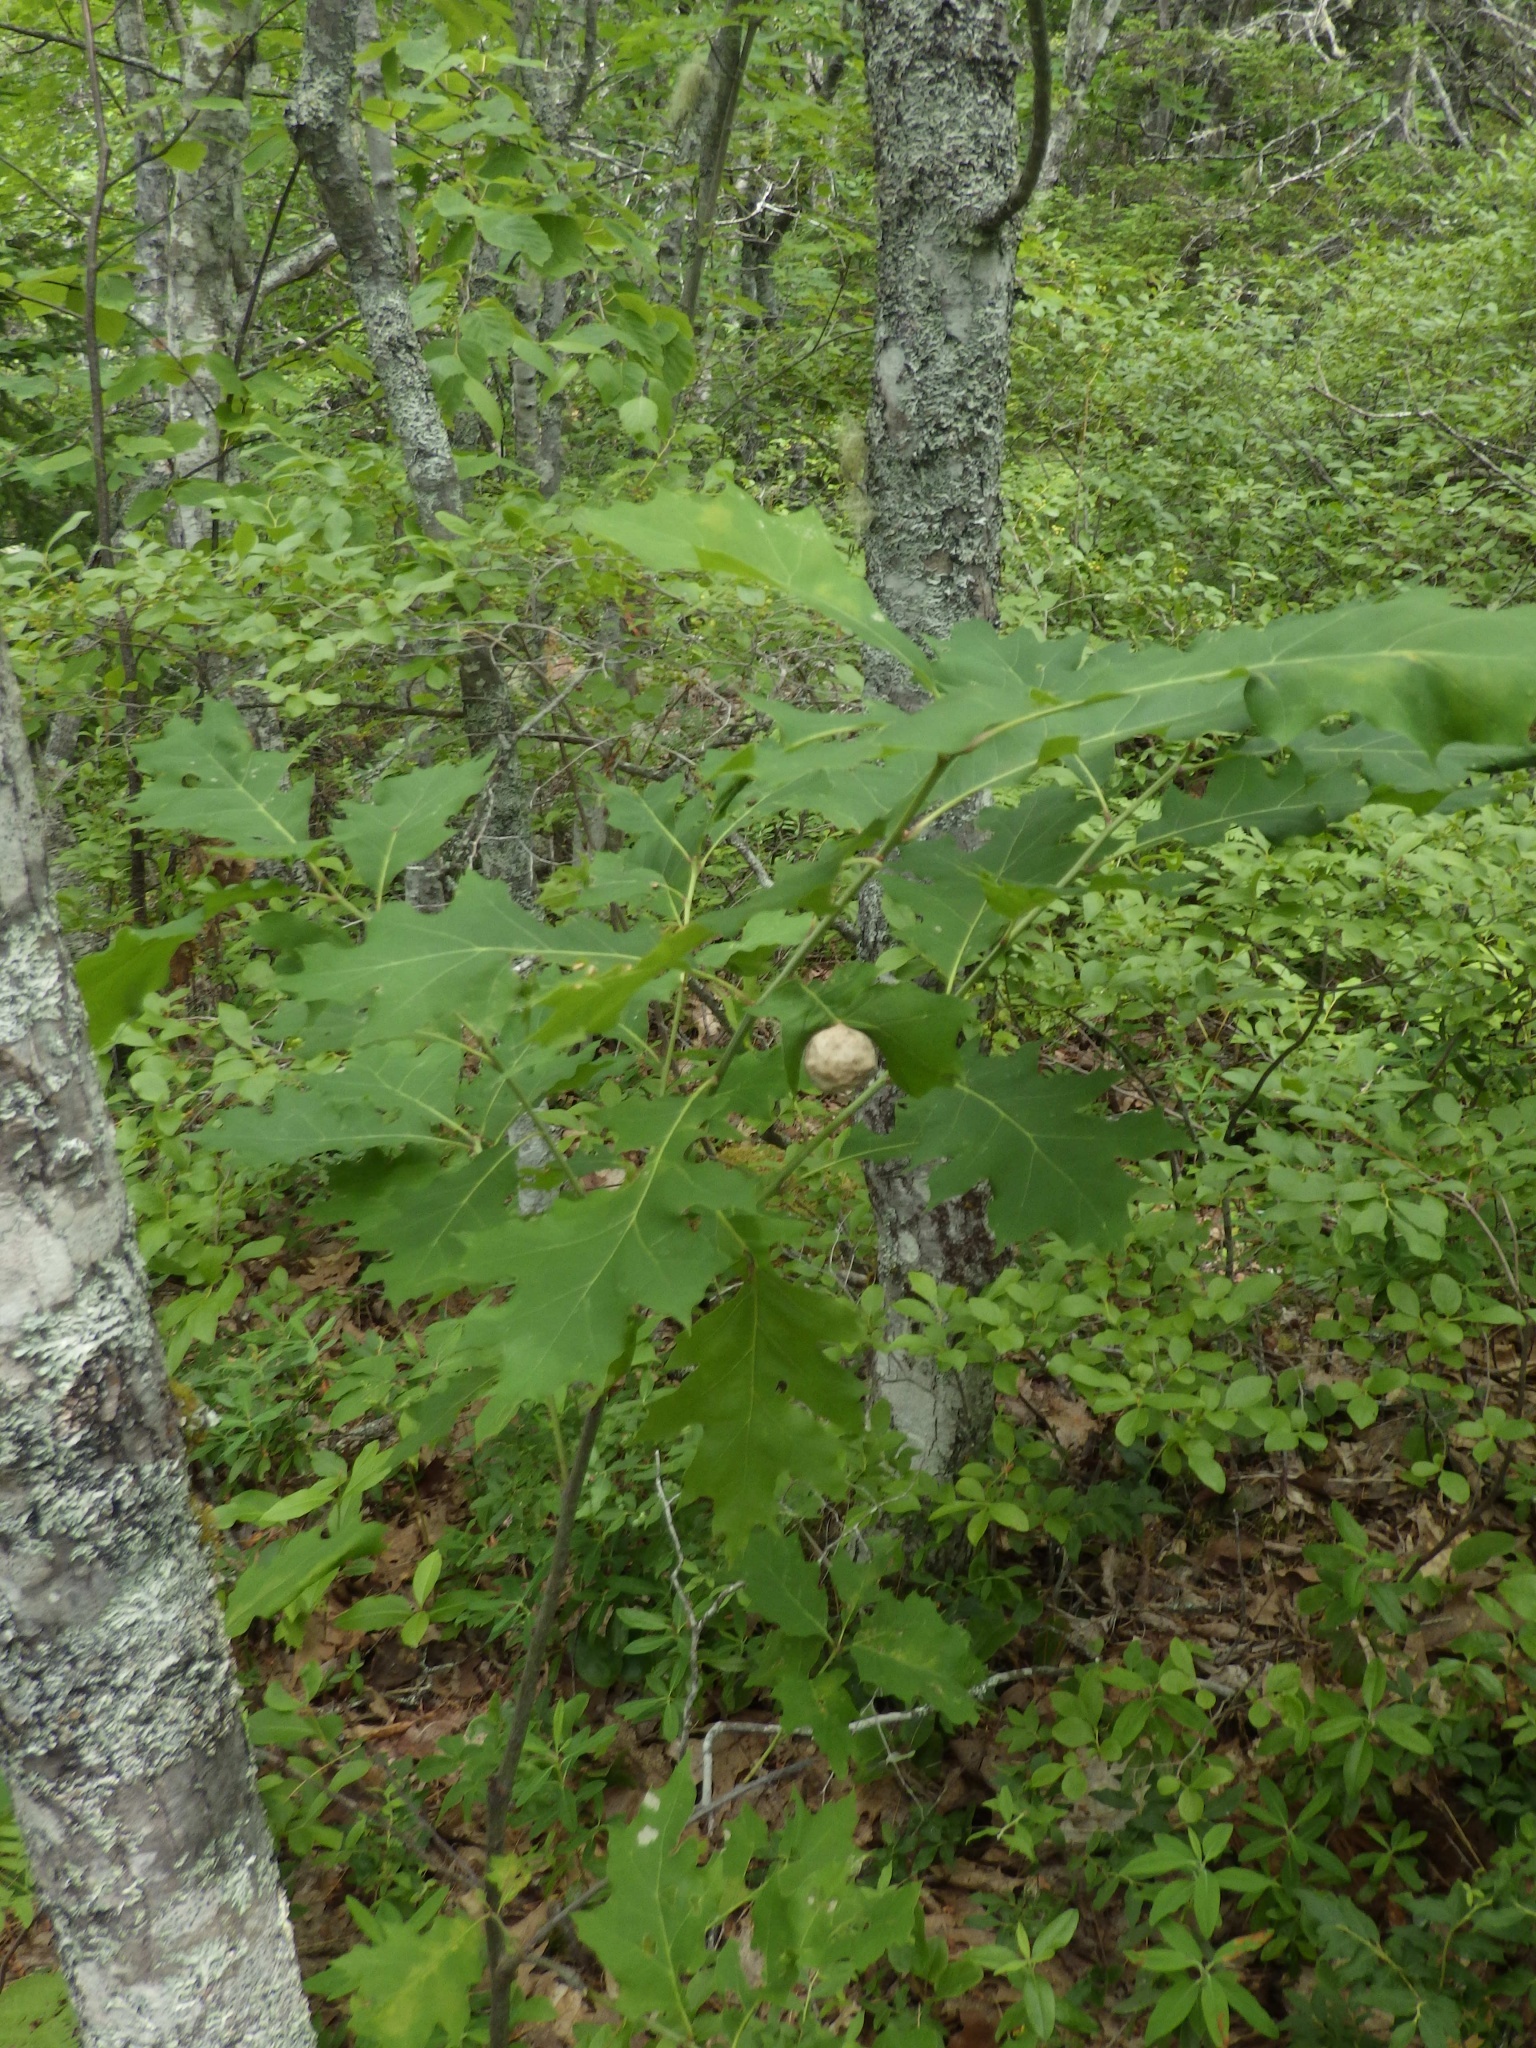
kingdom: Plantae
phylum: Tracheophyta
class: Magnoliopsida
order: Fagales
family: Fagaceae
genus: Quercus
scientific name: Quercus rubra
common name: Red oak
